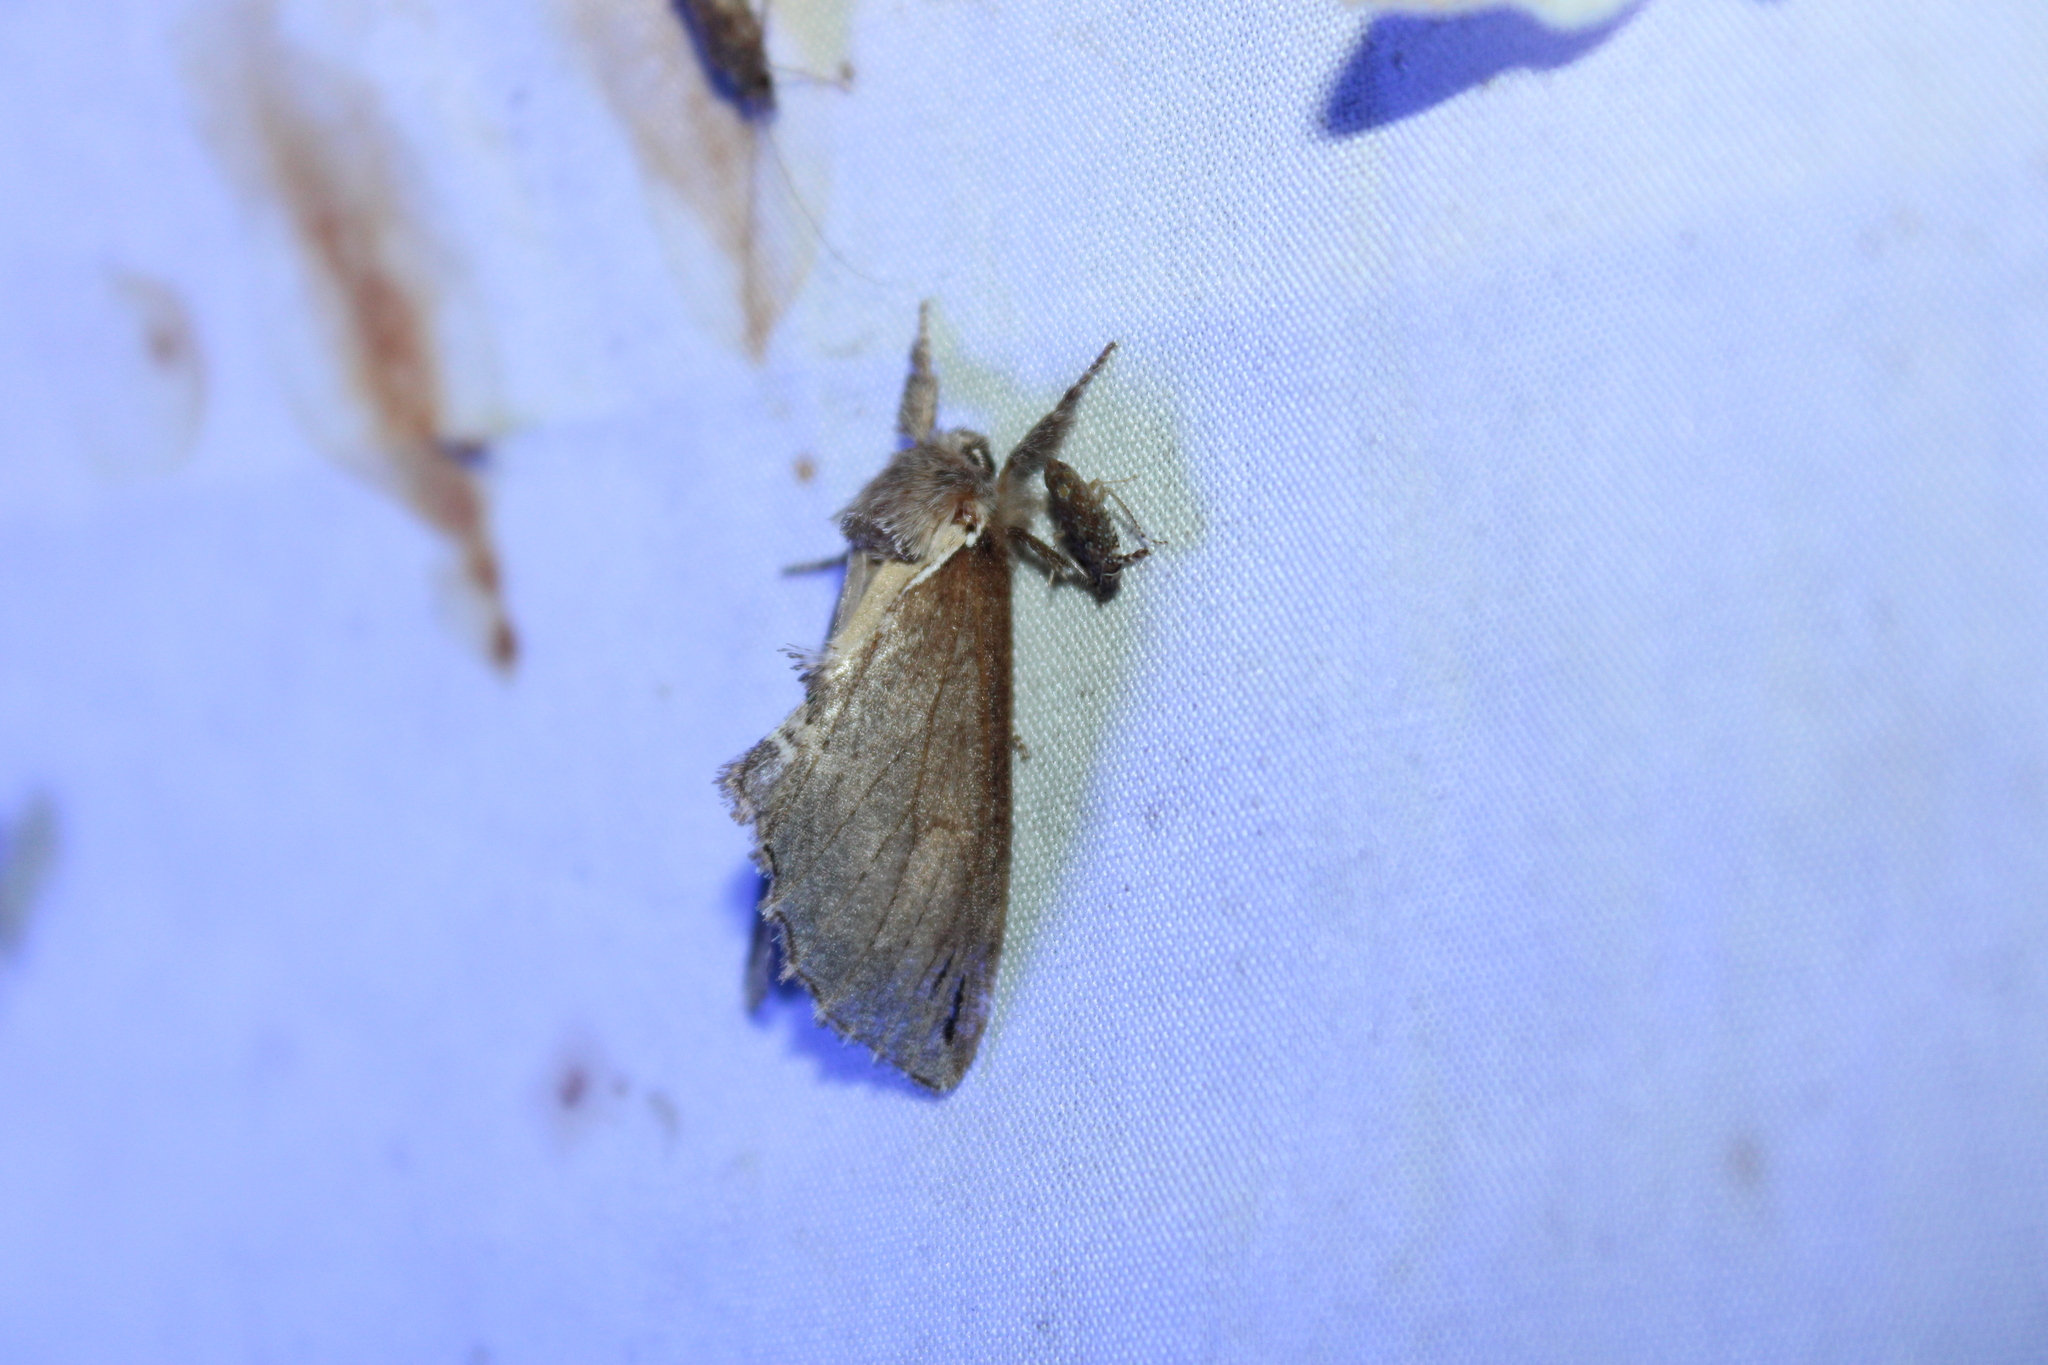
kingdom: Animalia
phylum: Arthropoda
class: Insecta
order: Lepidoptera
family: Notodontidae
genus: Pheosidea
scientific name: Pheosidea elegans
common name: Elegant prominent
